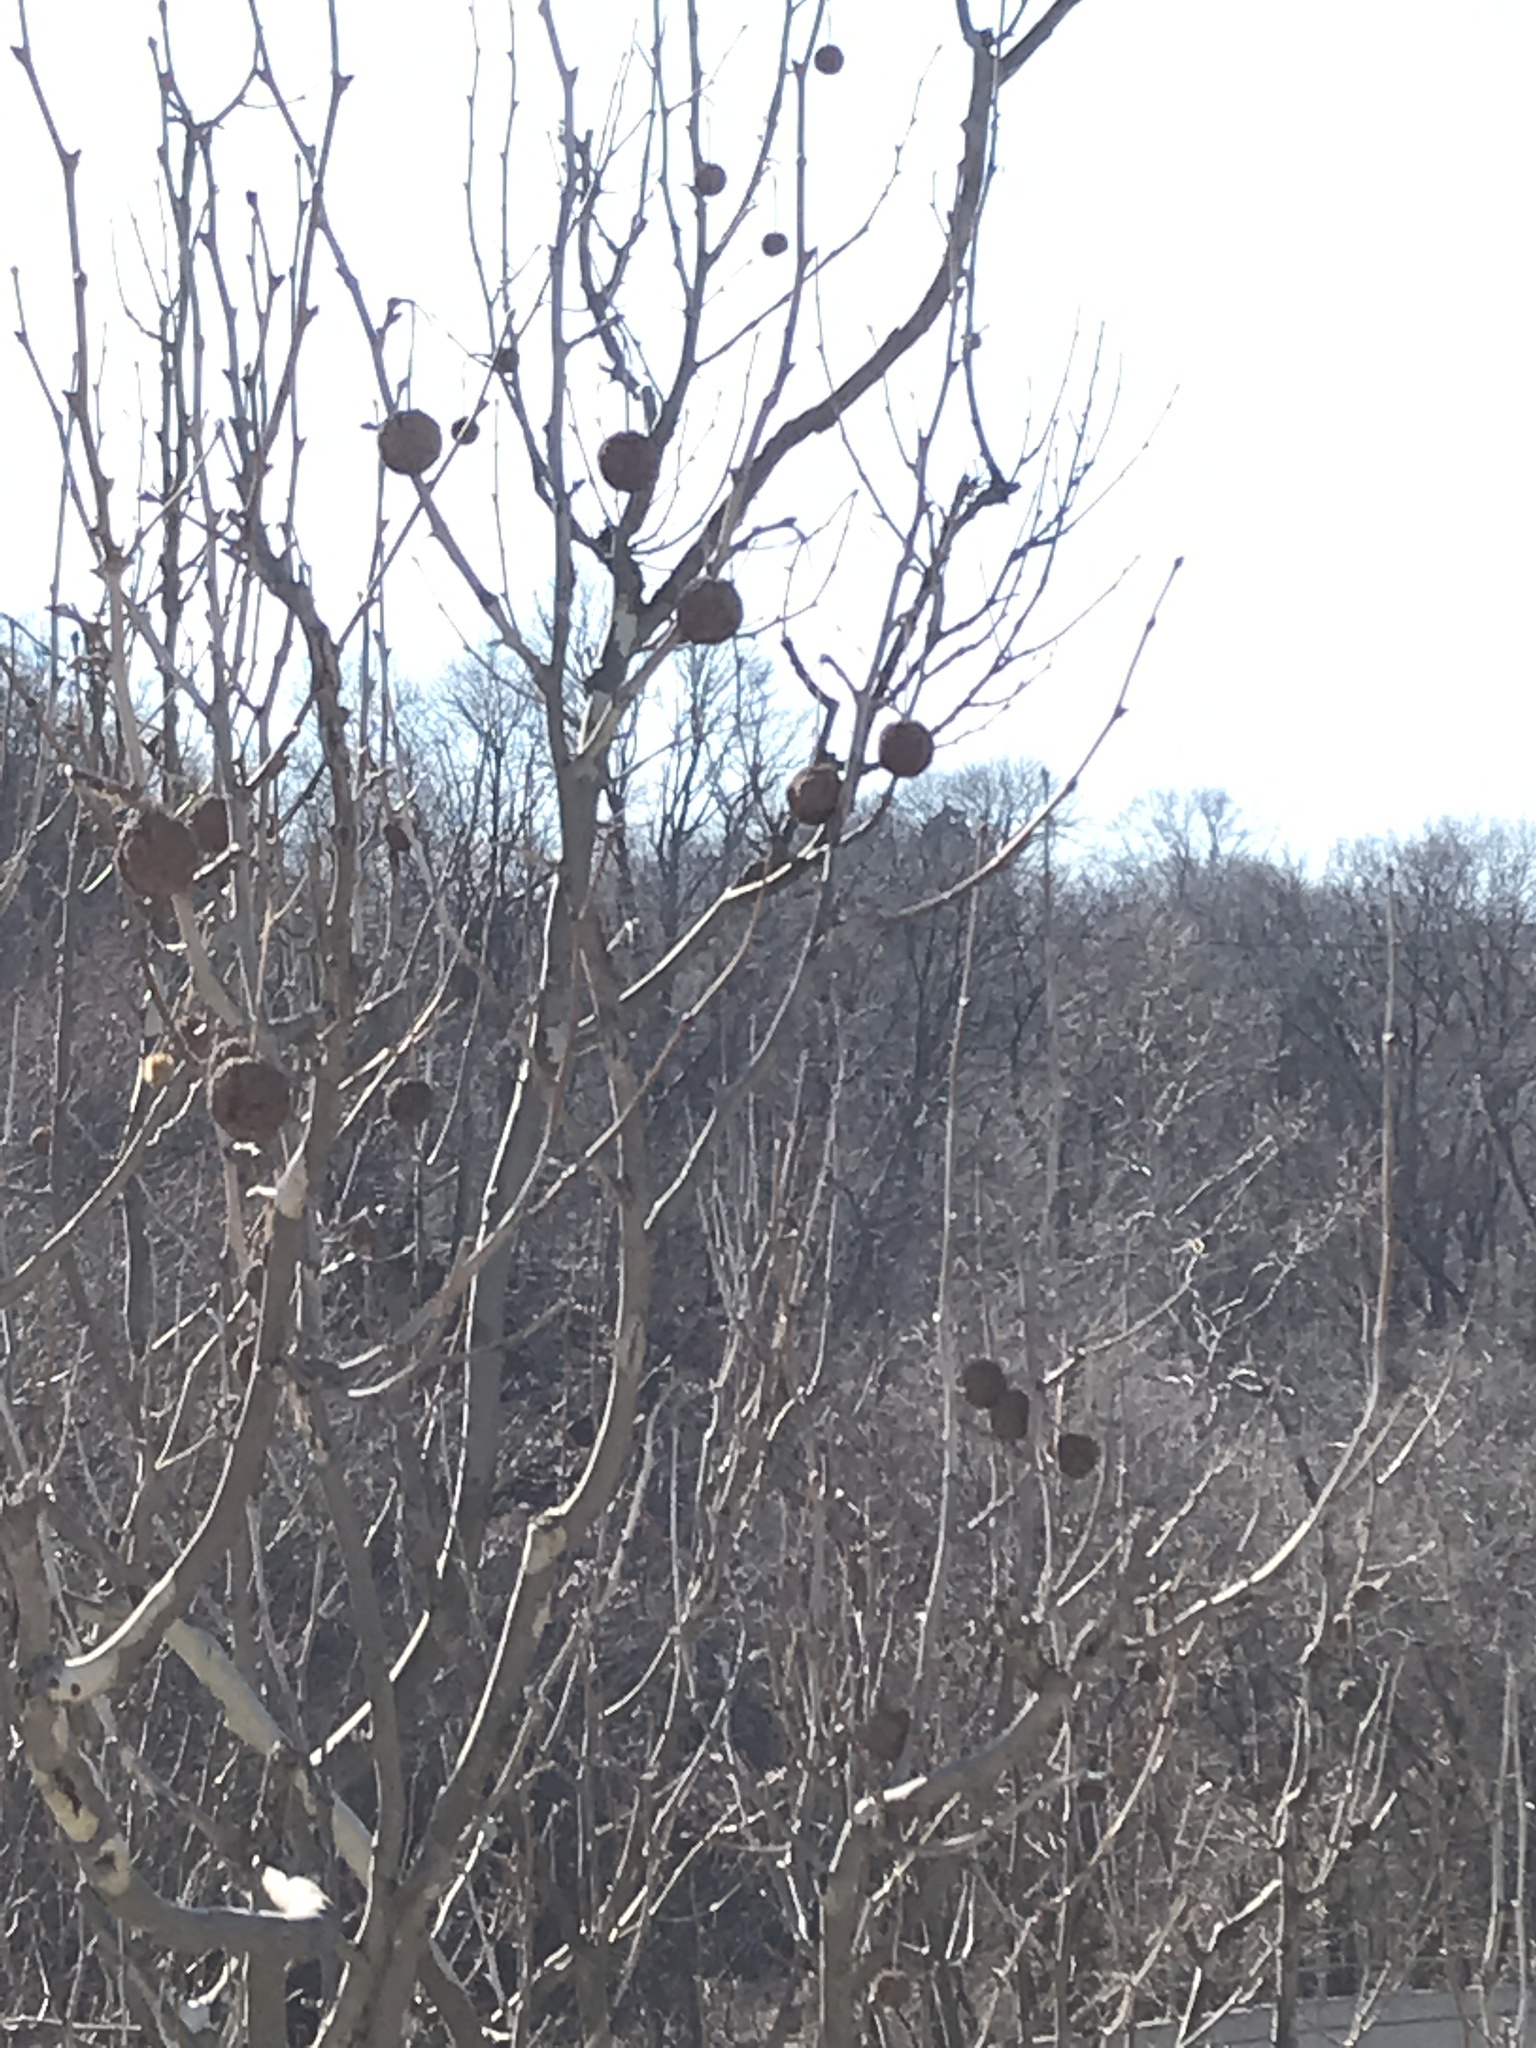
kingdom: Plantae
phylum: Tracheophyta
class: Magnoliopsida
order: Proteales
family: Platanaceae
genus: Platanus
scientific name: Platanus occidentalis
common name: American sycamore
